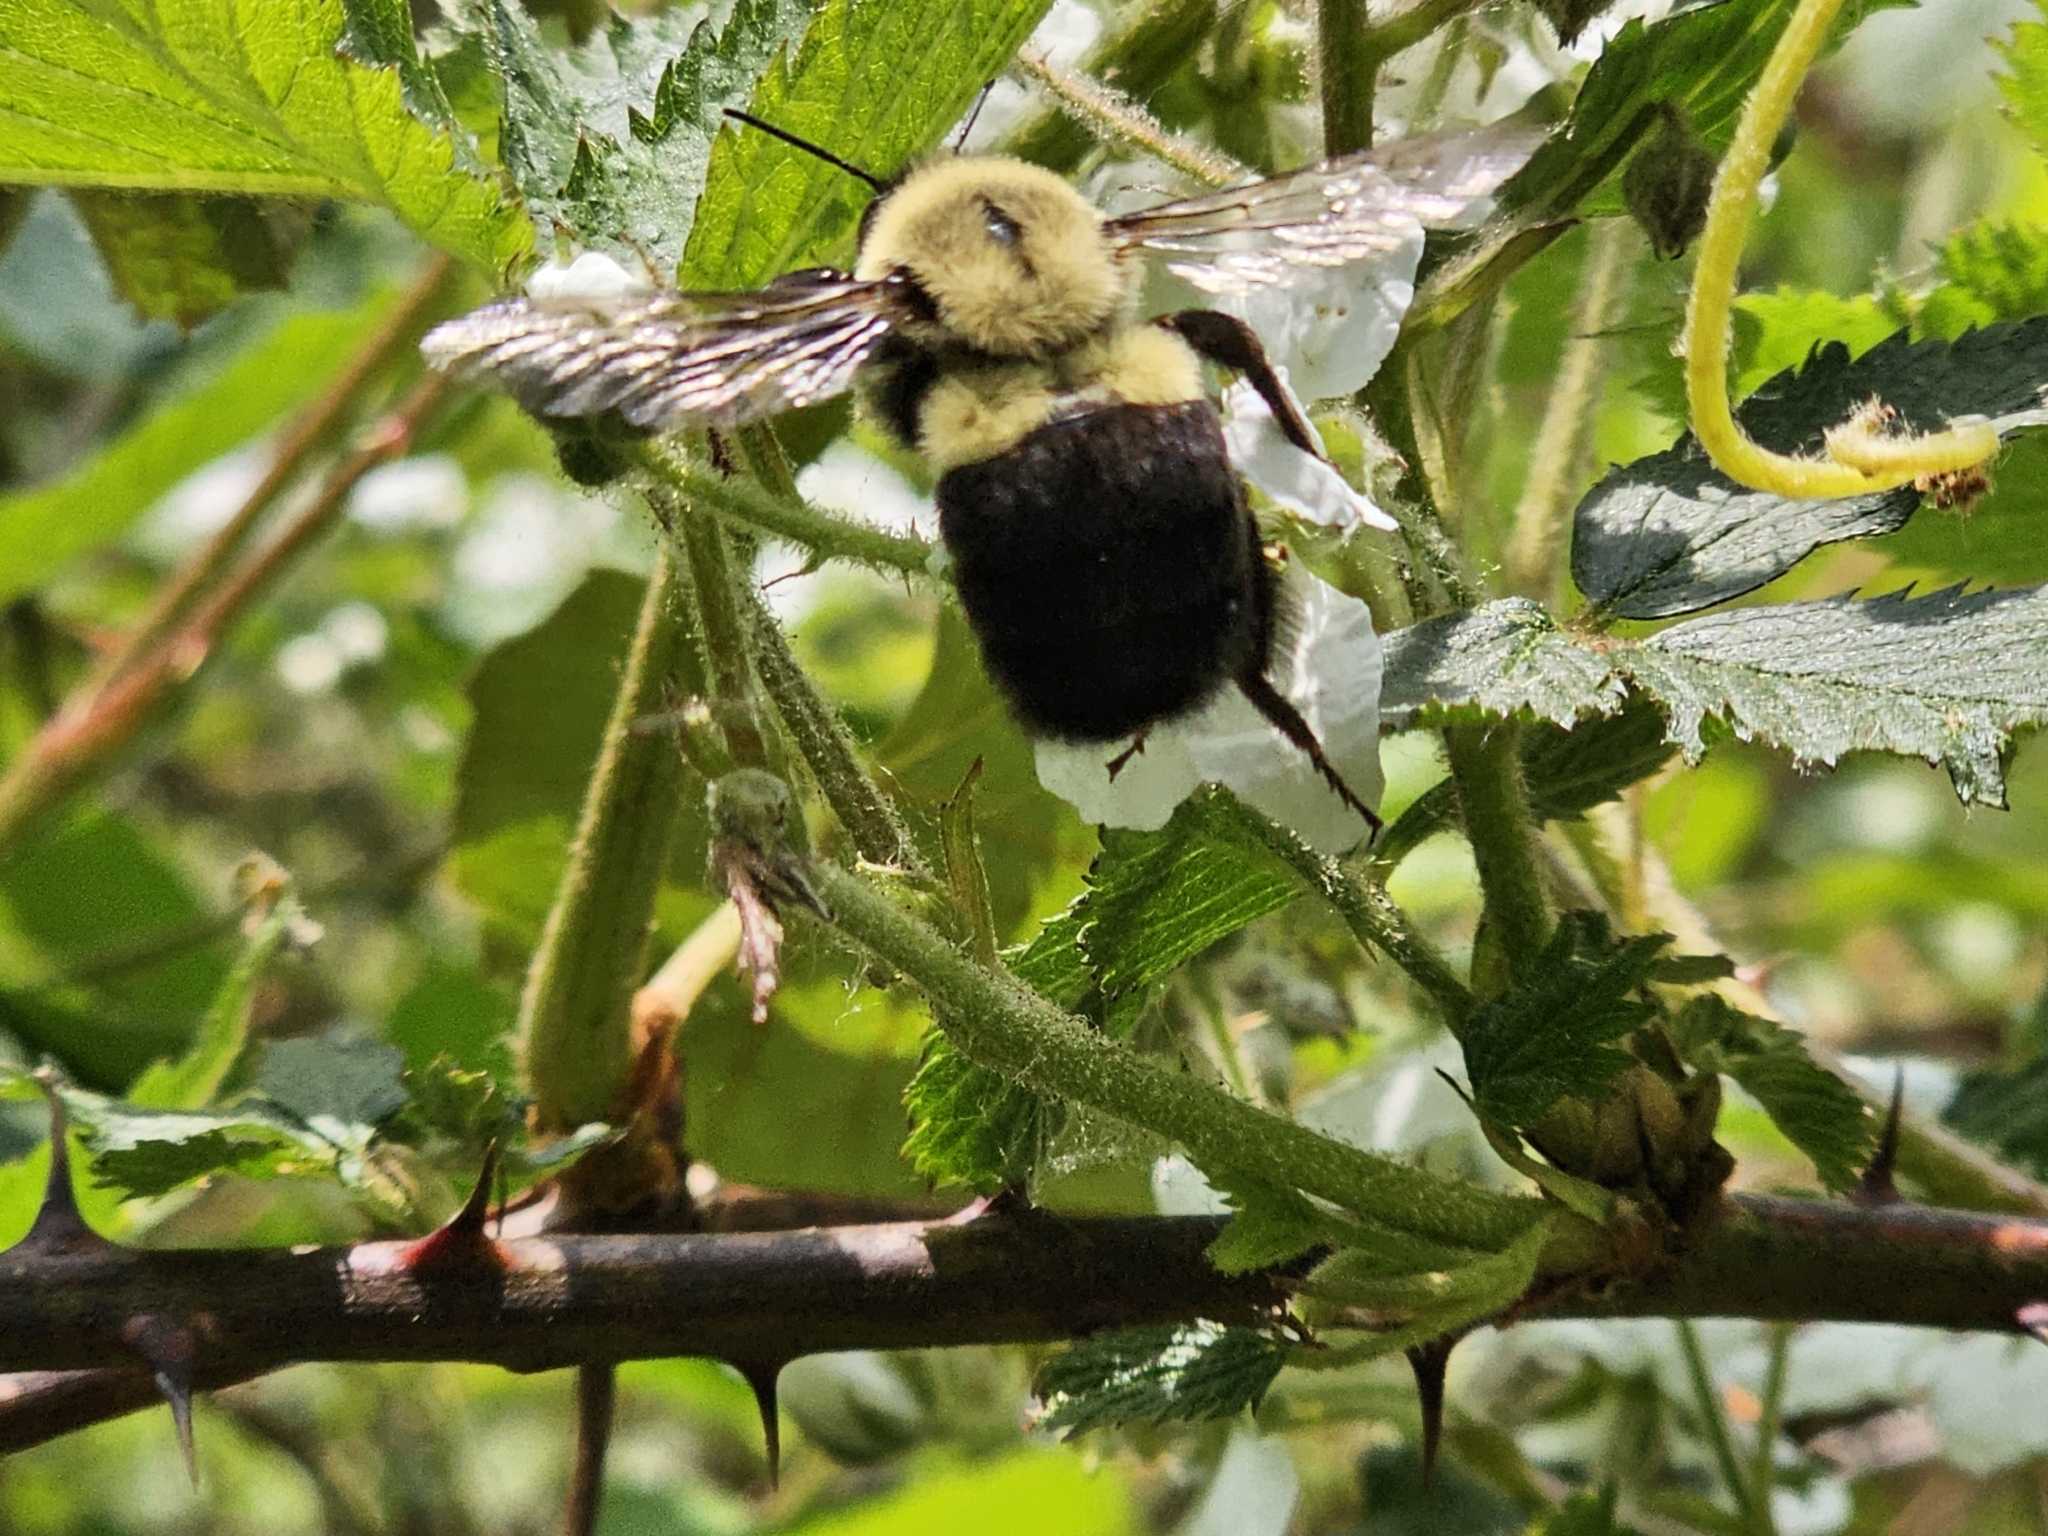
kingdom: Animalia
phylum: Arthropoda
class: Insecta
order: Hymenoptera
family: Apidae
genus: Bombus
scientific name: Bombus impatiens
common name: Common eastern bumble bee
